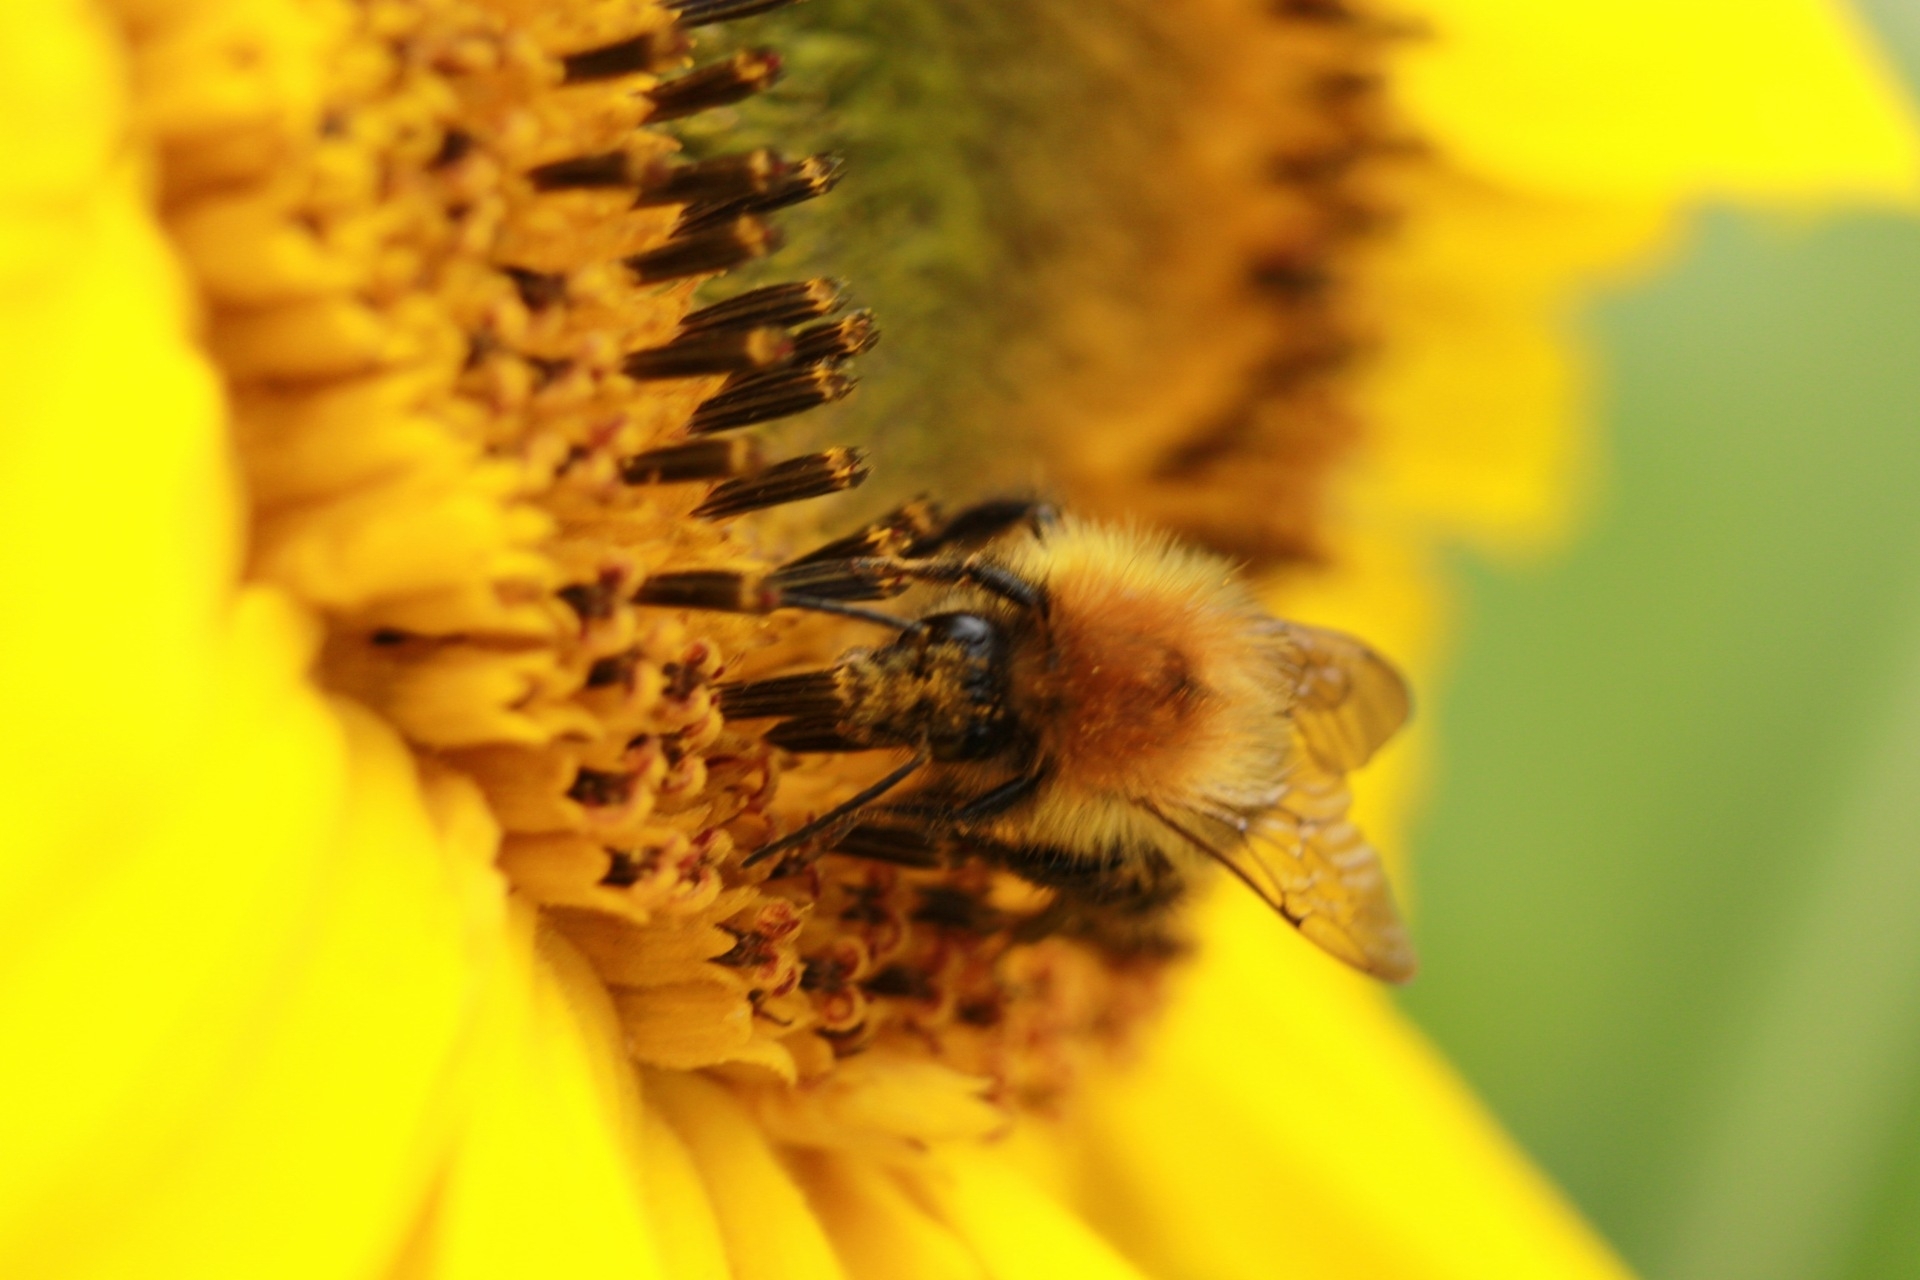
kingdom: Animalia
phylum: Arthropoda
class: Insecta
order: Hymenoptera
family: Apidae
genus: Bombus
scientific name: Bombus pascuorum
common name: Common carder bee
